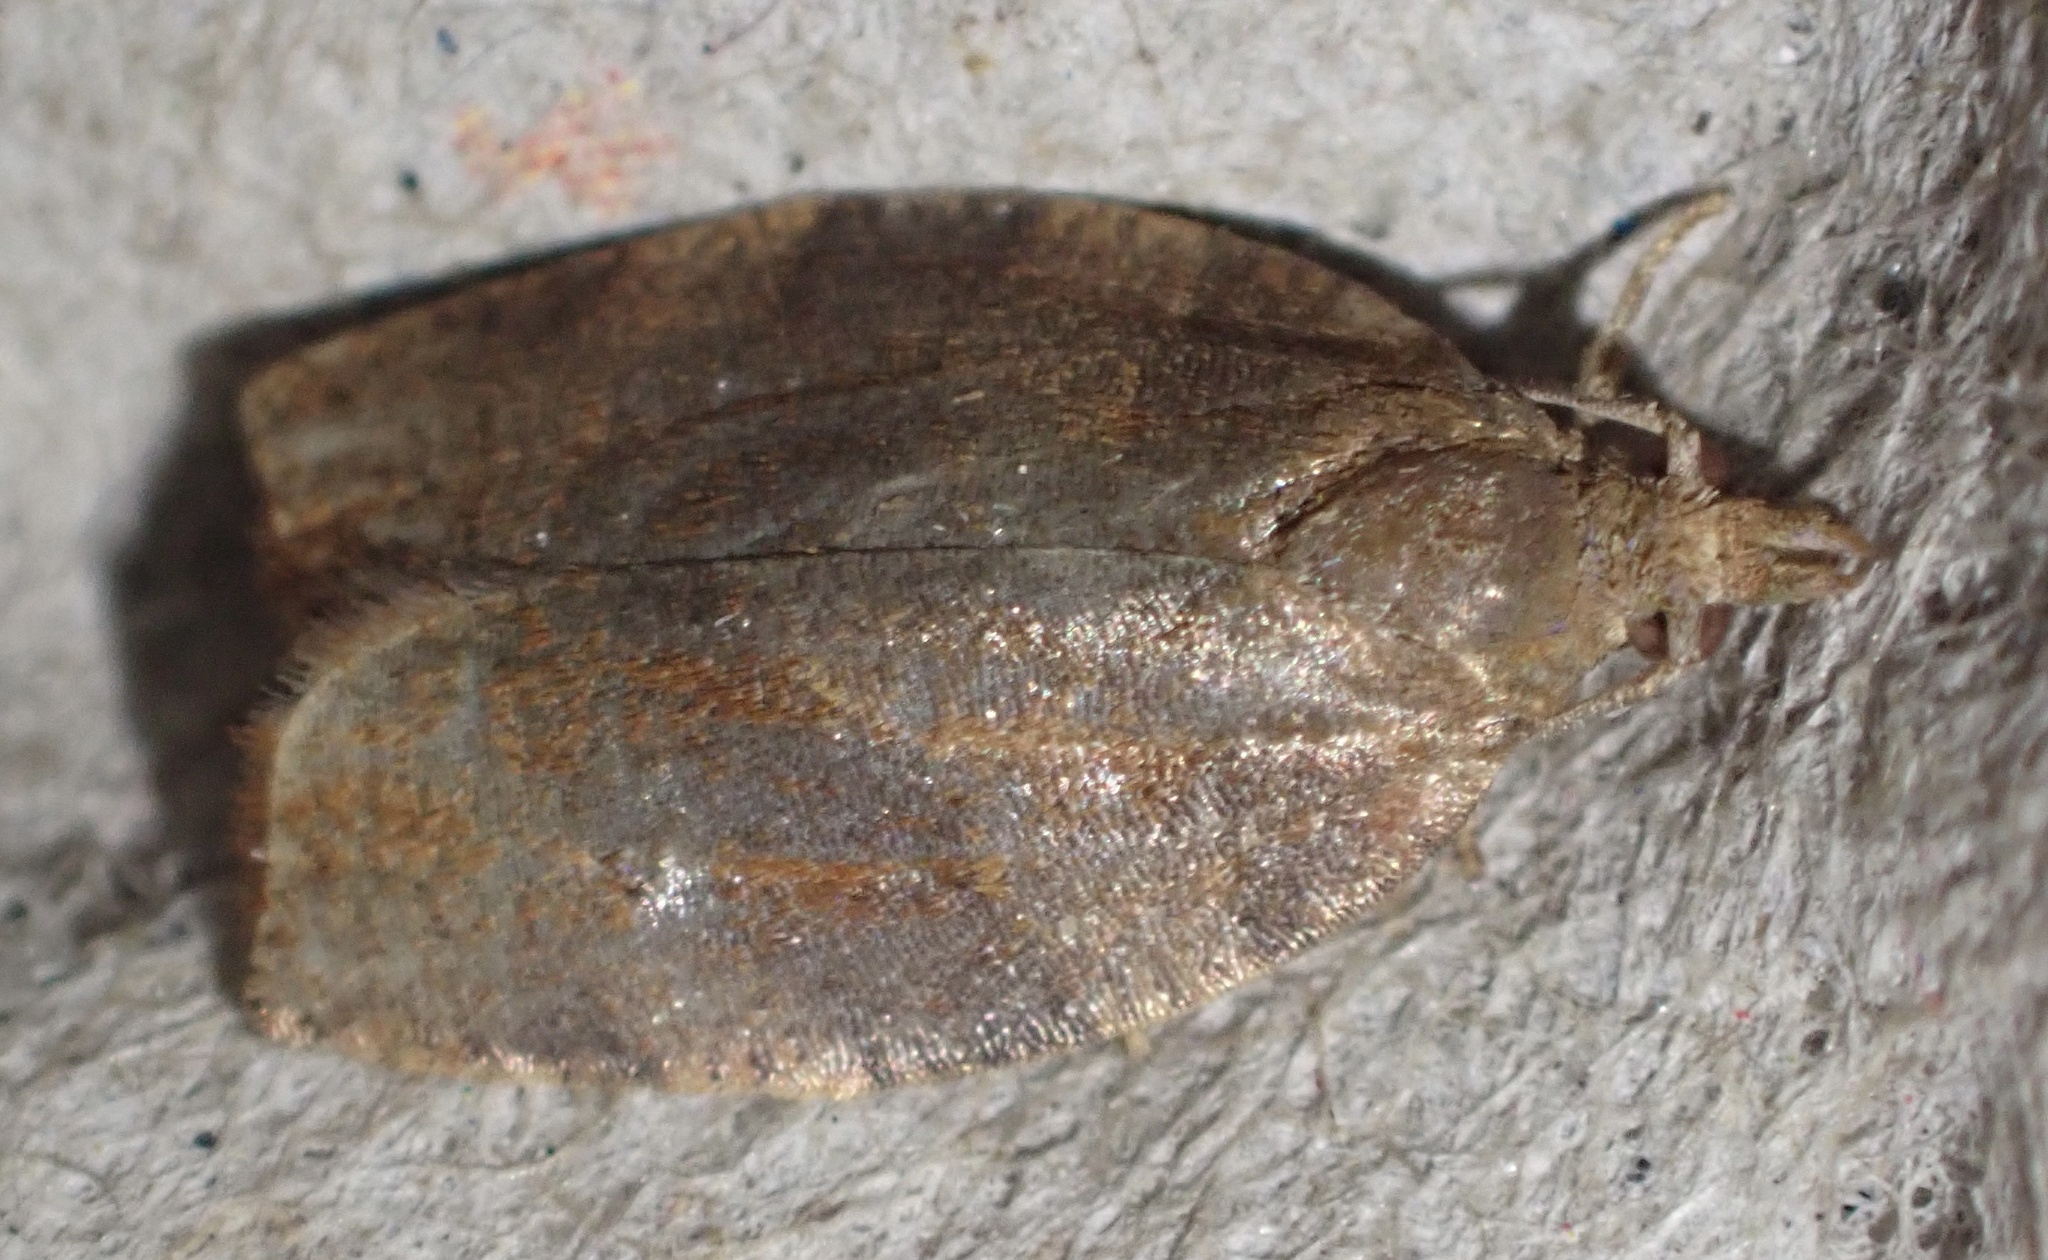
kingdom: Animalia
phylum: Arthropoda
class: Insecta
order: Lepidoptera
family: Tortricidae
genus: Pandemis
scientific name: Pandemis heparana
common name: Dark fruit-tree tortrix
